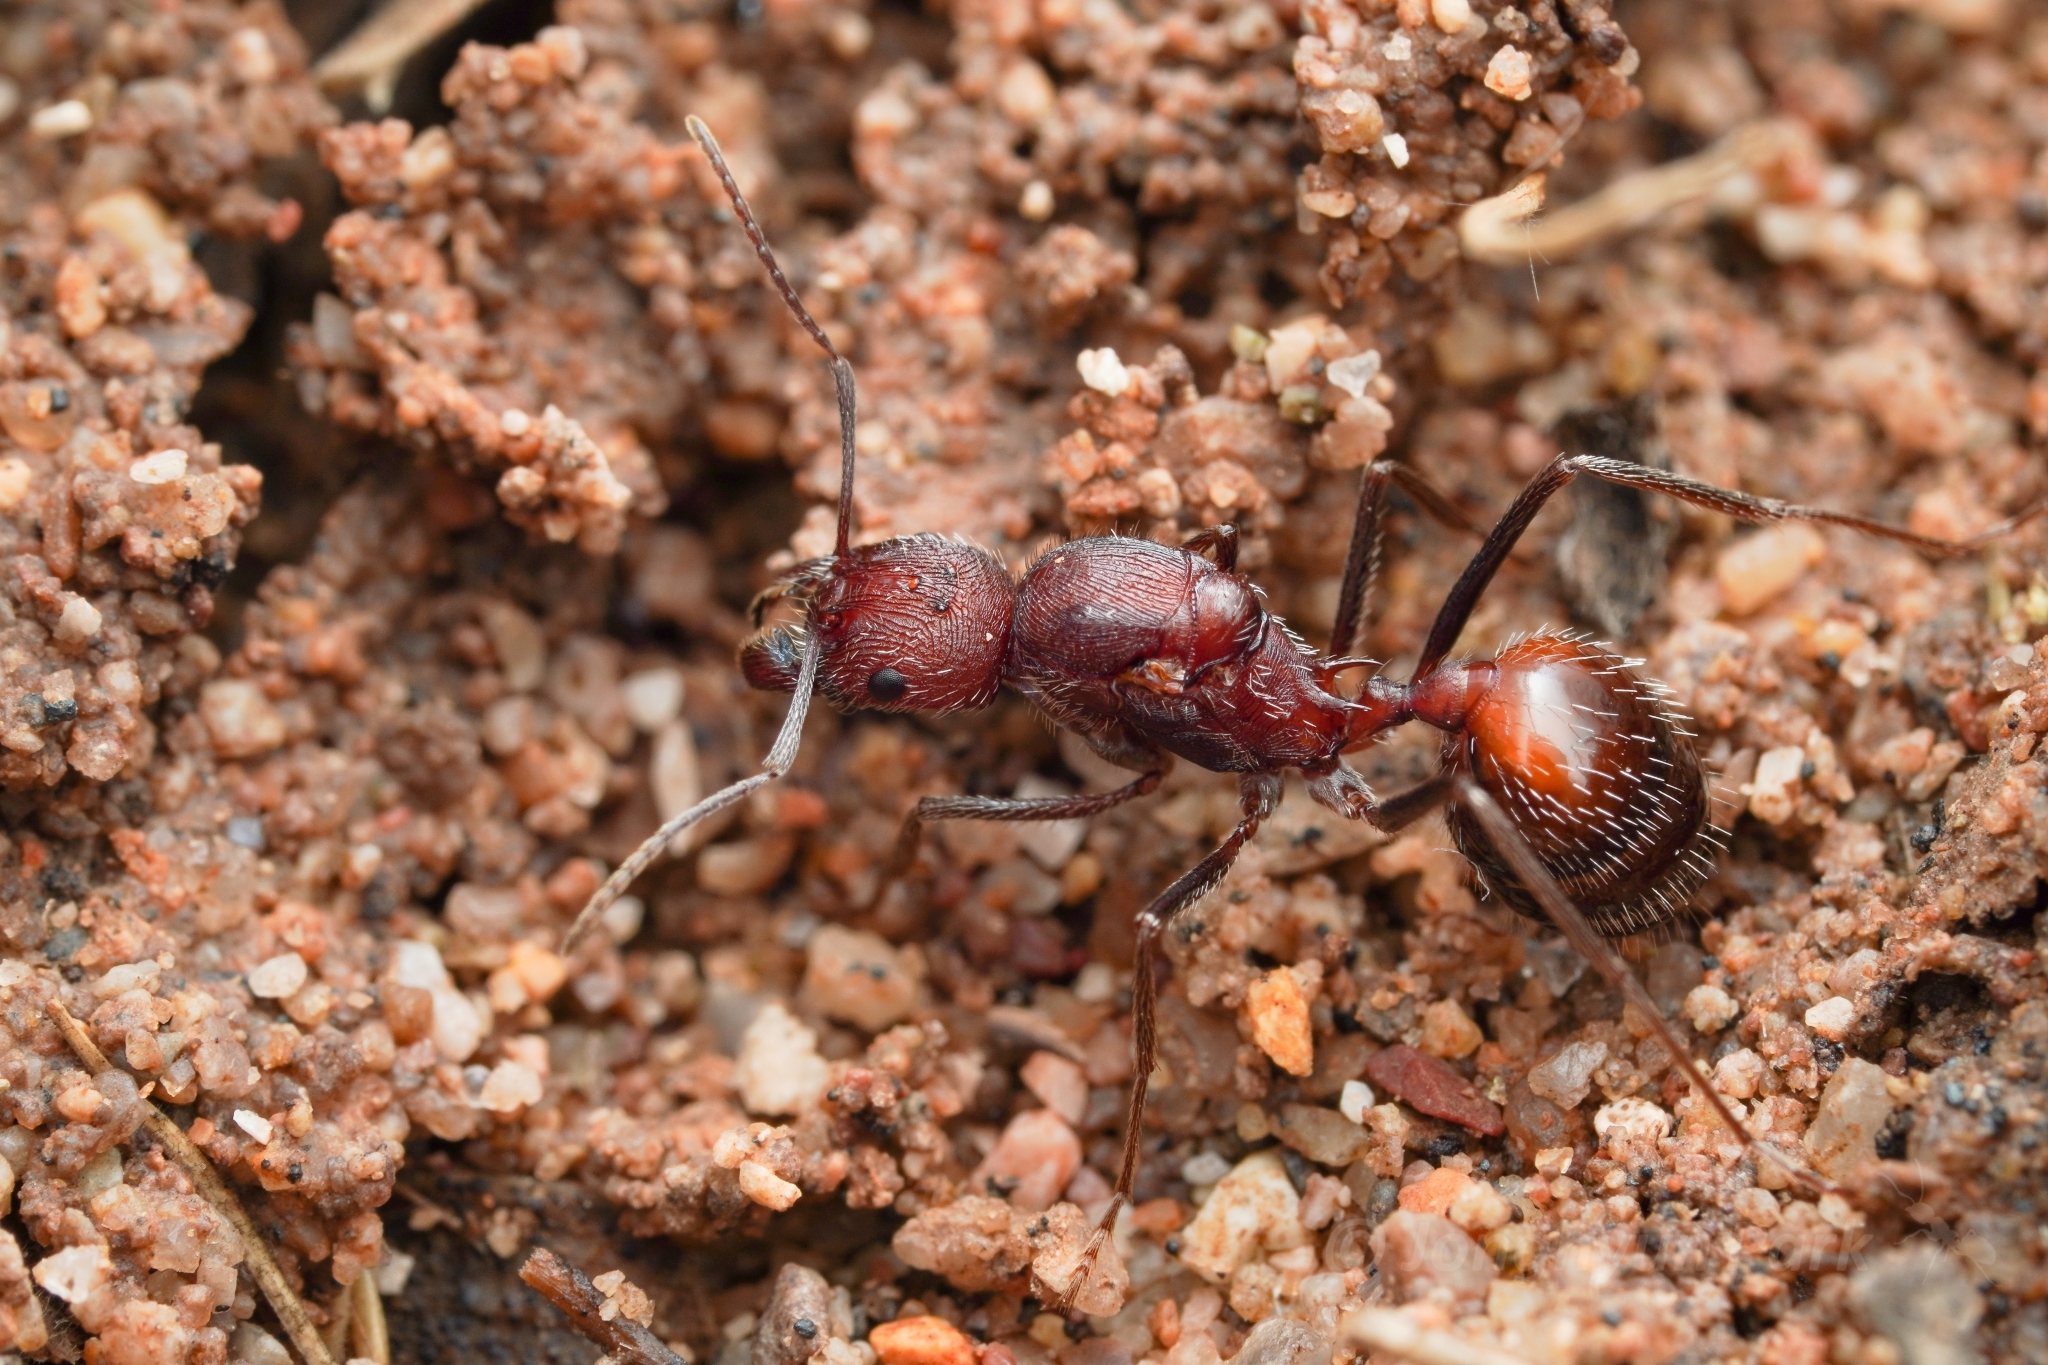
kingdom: Animalia
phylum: Arthropoda
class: Insecta
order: Hymenoptera
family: Formicidae
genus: Novomessor
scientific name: Novomessor albisetosa
